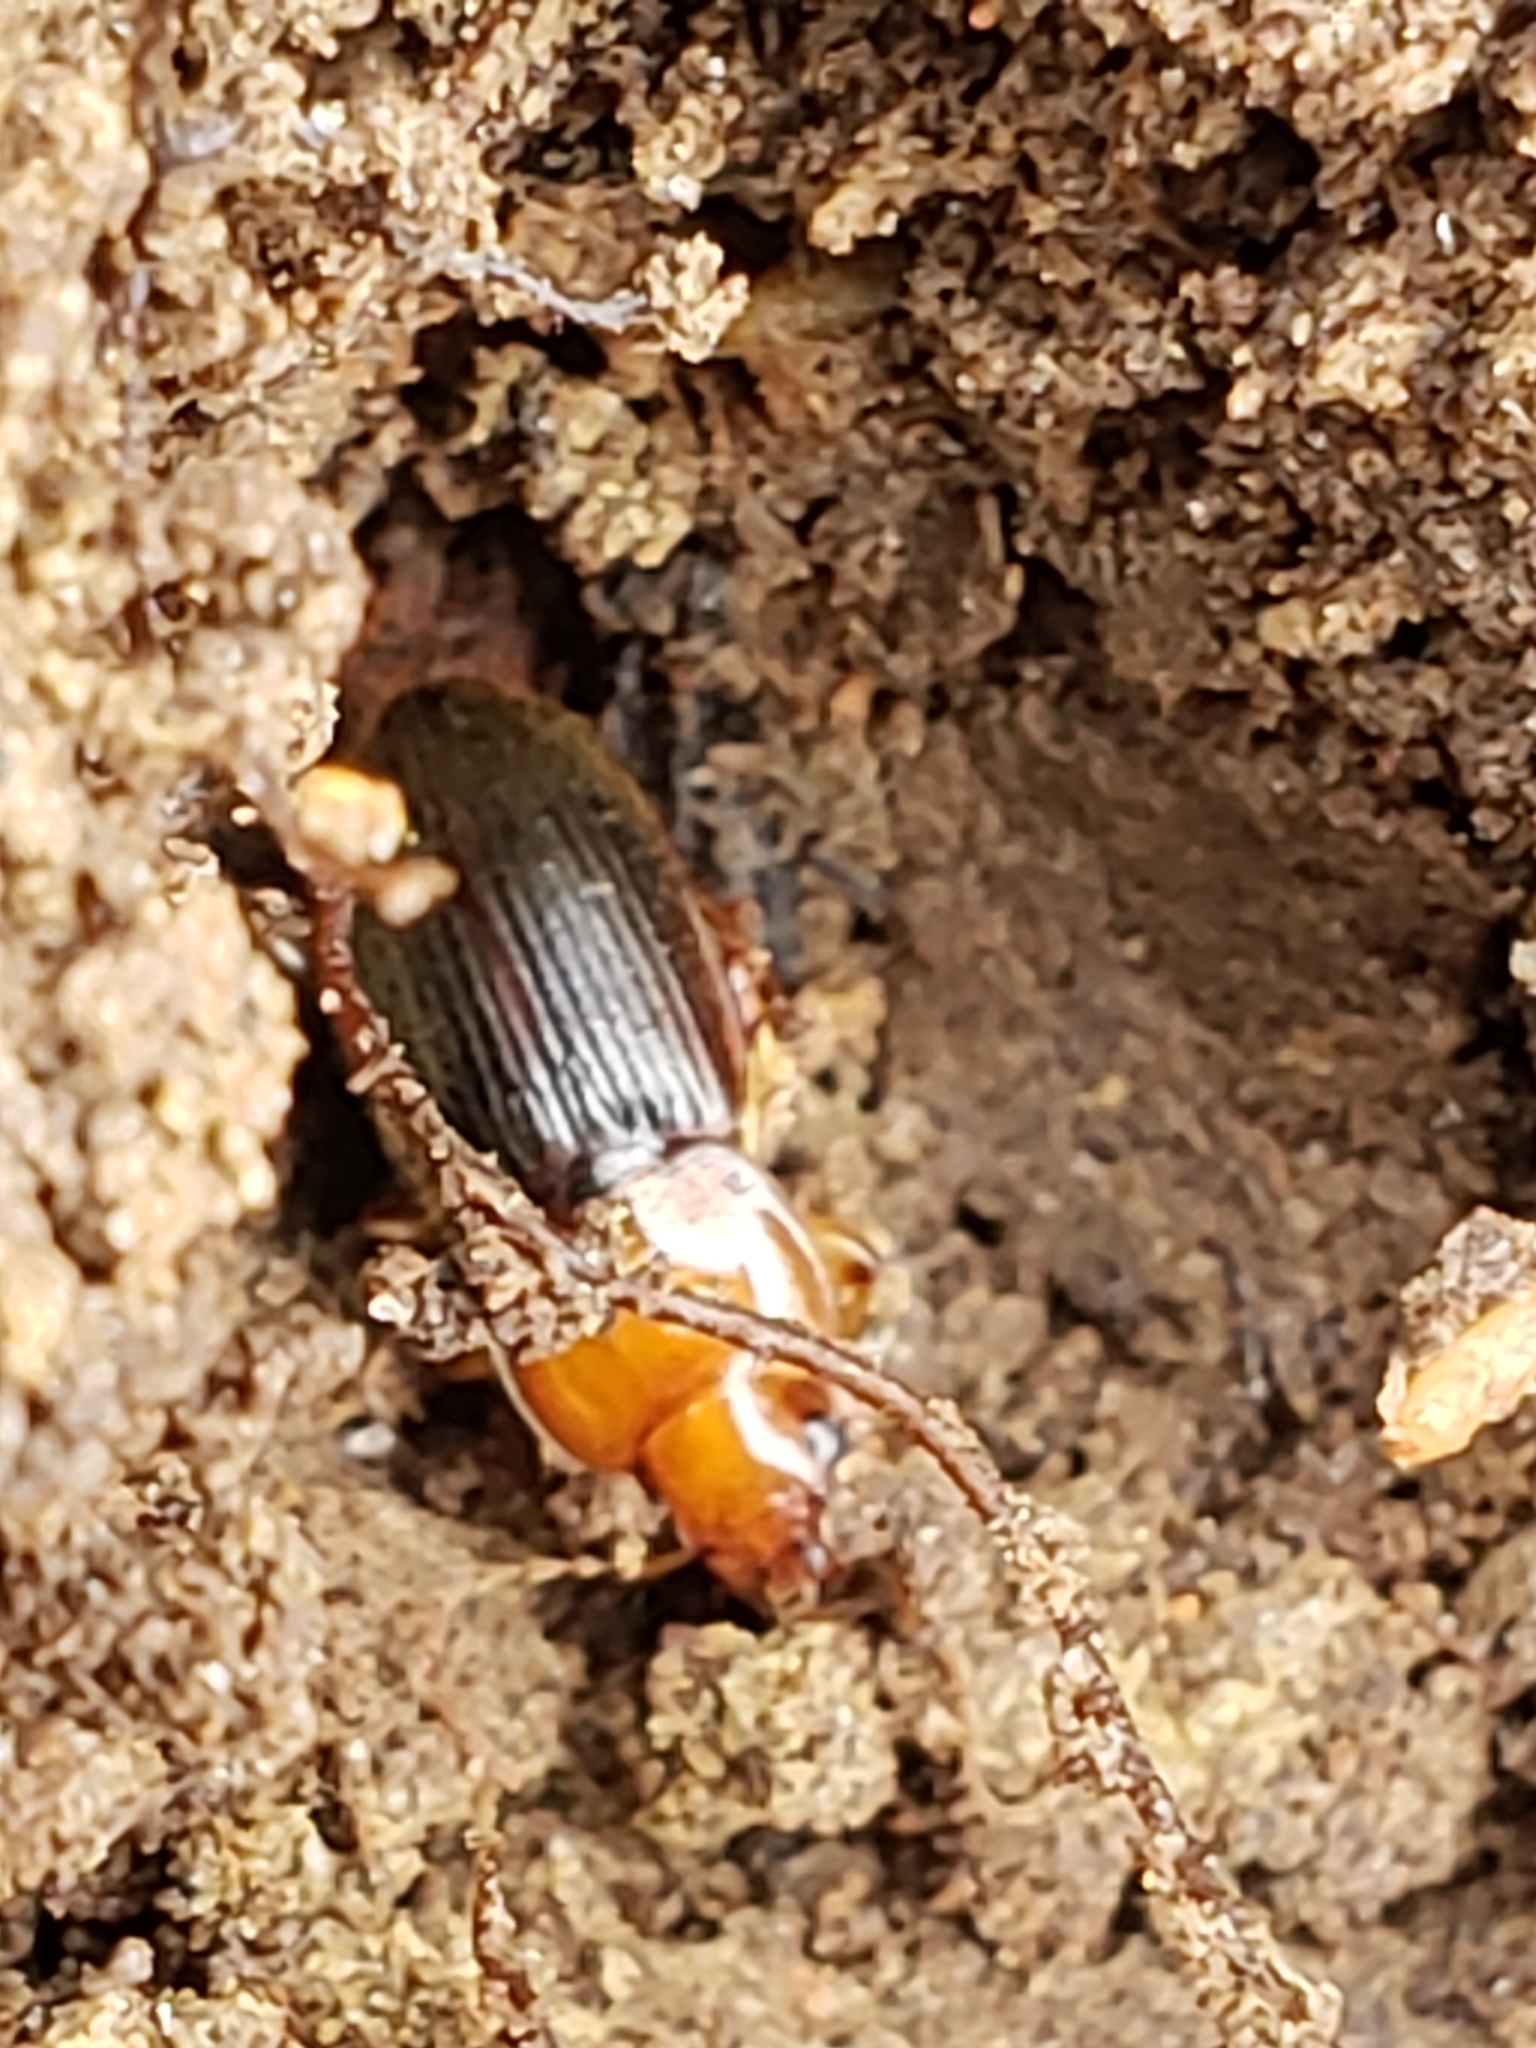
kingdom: Animalia
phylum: Arthropoda
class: Insecta
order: Coleoptera
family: Carabidae
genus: Amphasia
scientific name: Amphasia interstitialis
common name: Red-headed ground beetle
